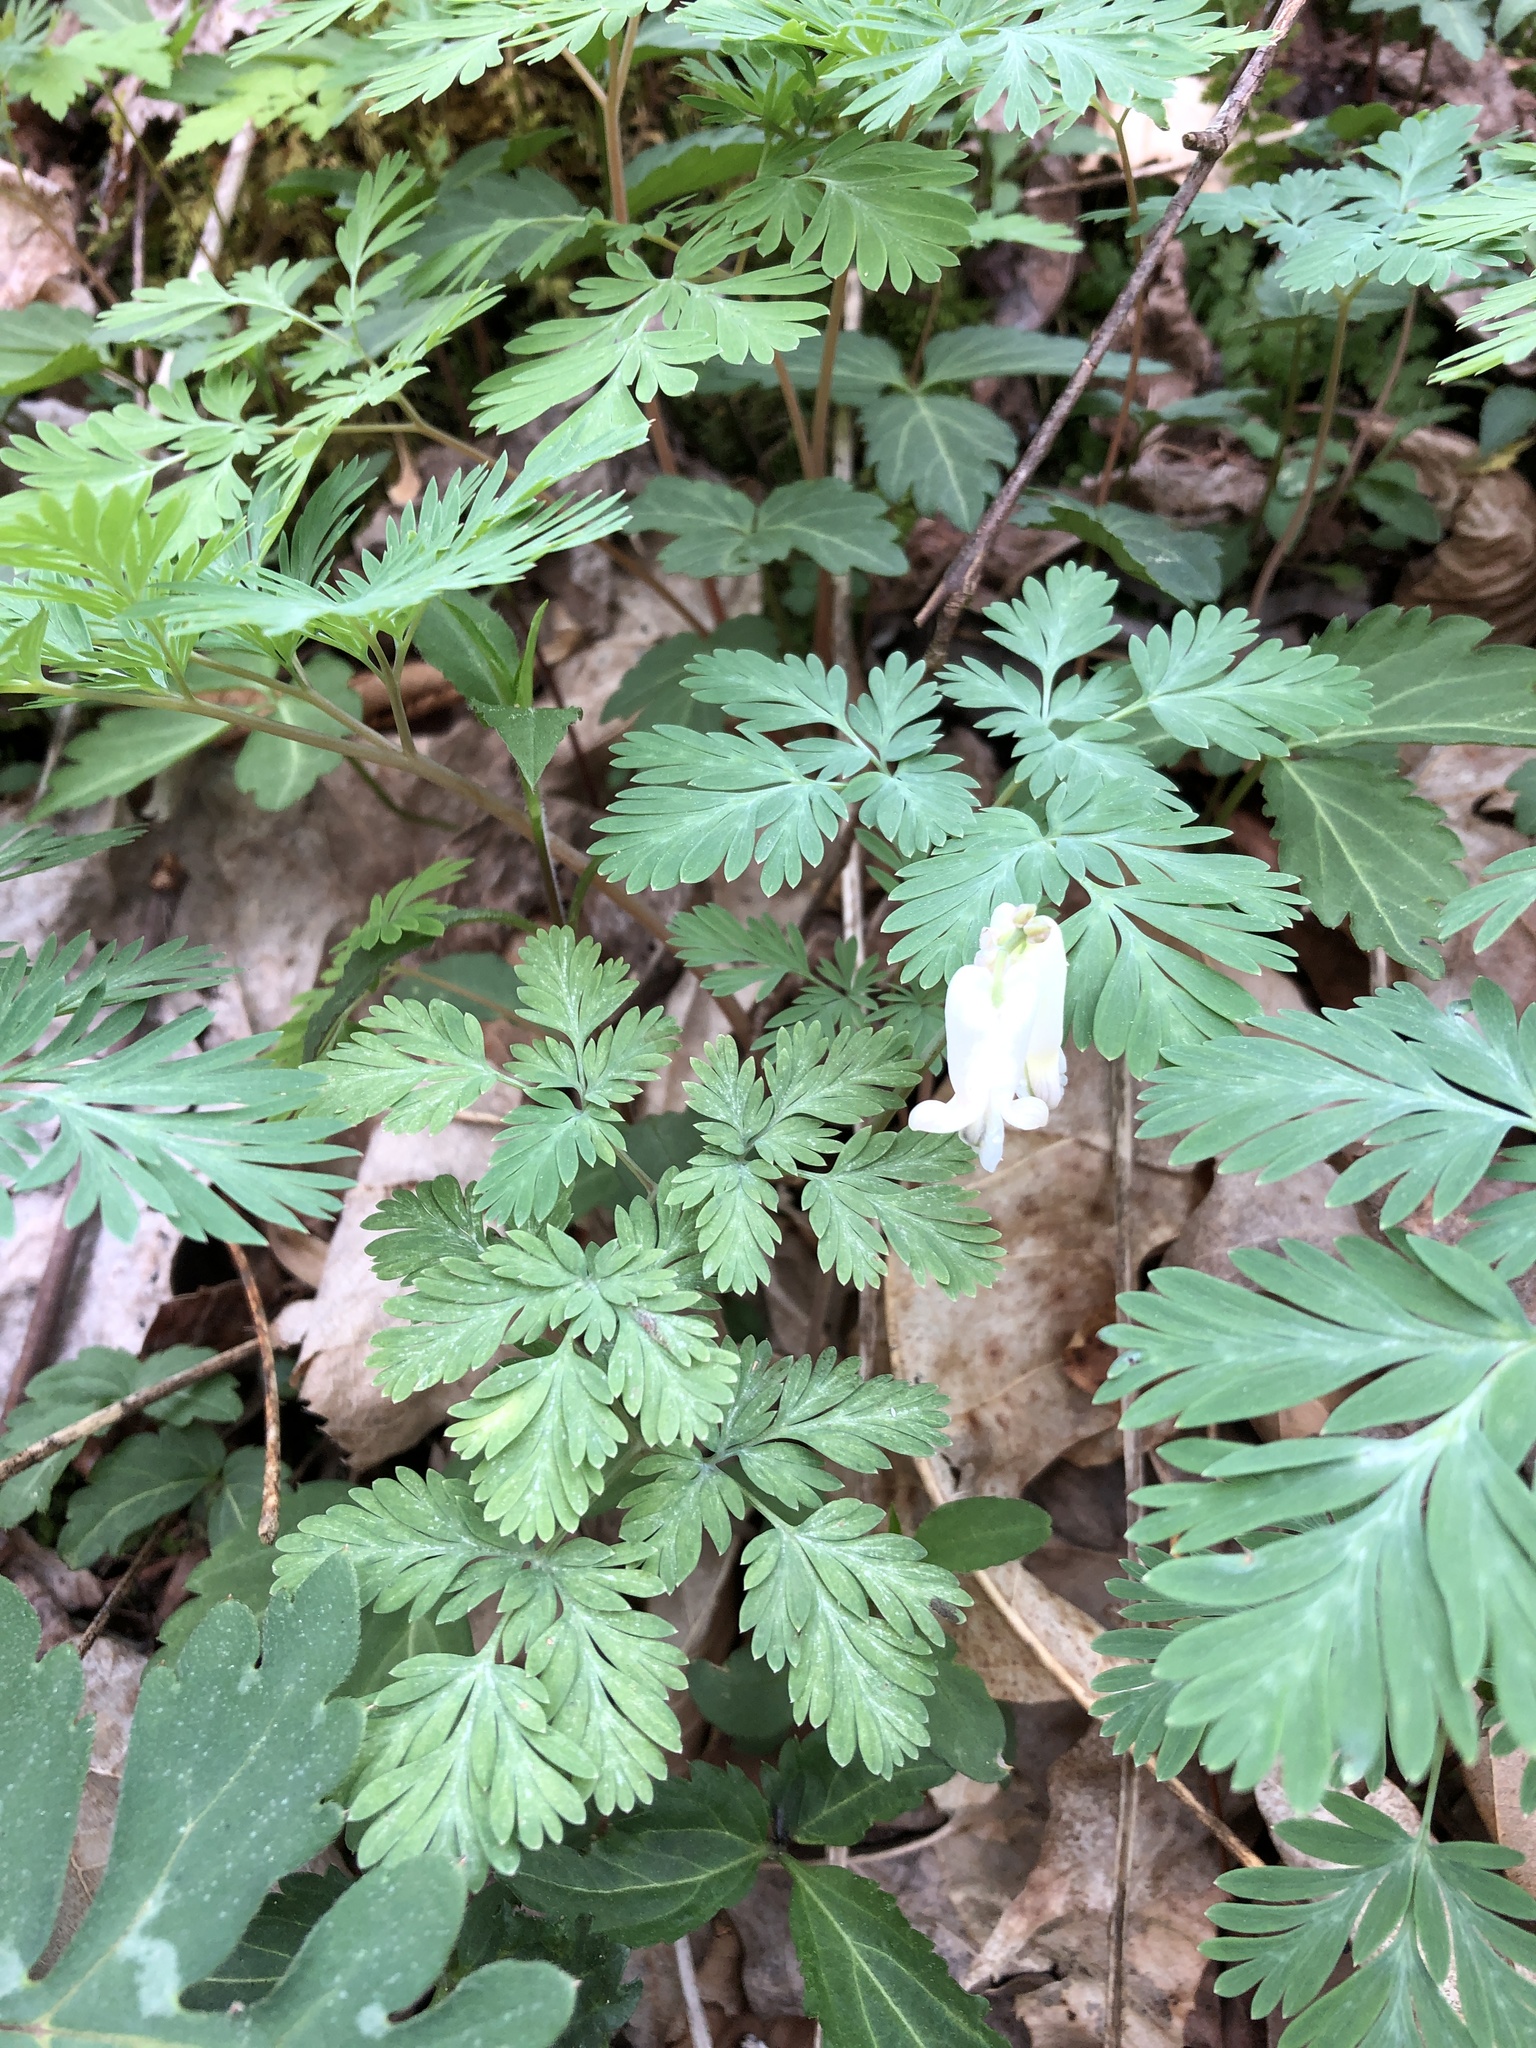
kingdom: Plantae
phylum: Tracheophyta
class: Magnoliopsida
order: Ranunculales
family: Papaveraceae
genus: Dicentra
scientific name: Dicentra canadensis
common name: Squirrel-corn
